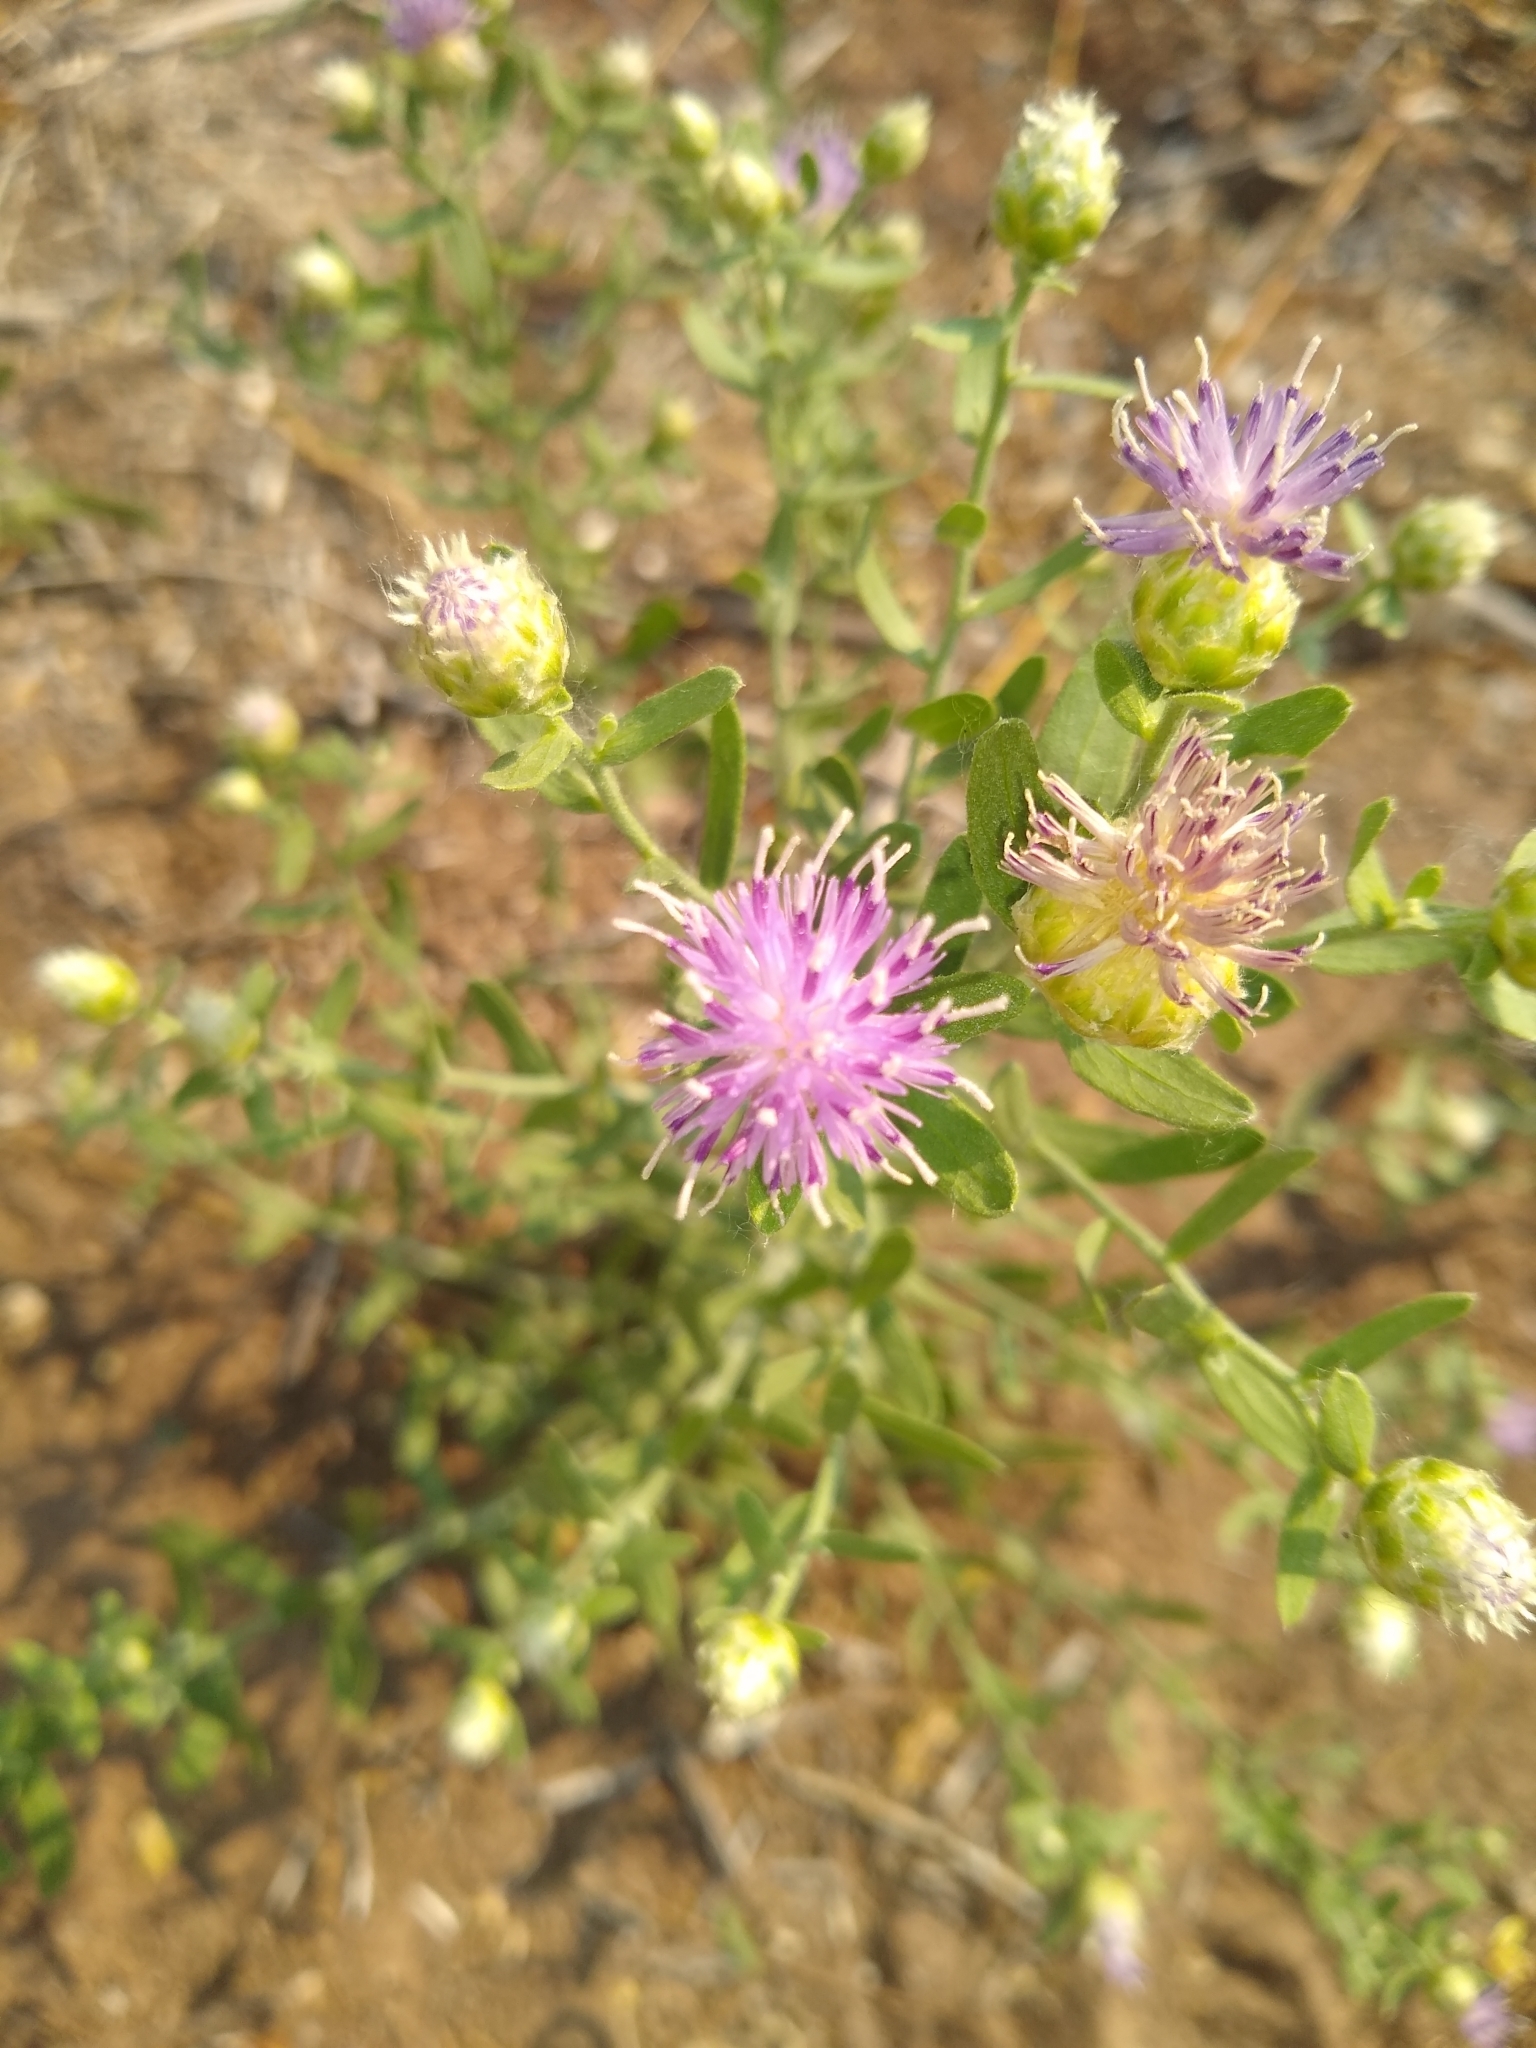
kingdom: Plantae
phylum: Tracheophyta
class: Magnoliopsida
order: Asterales
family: Asteraceae
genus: Leuzea
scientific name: Leuzea repens
